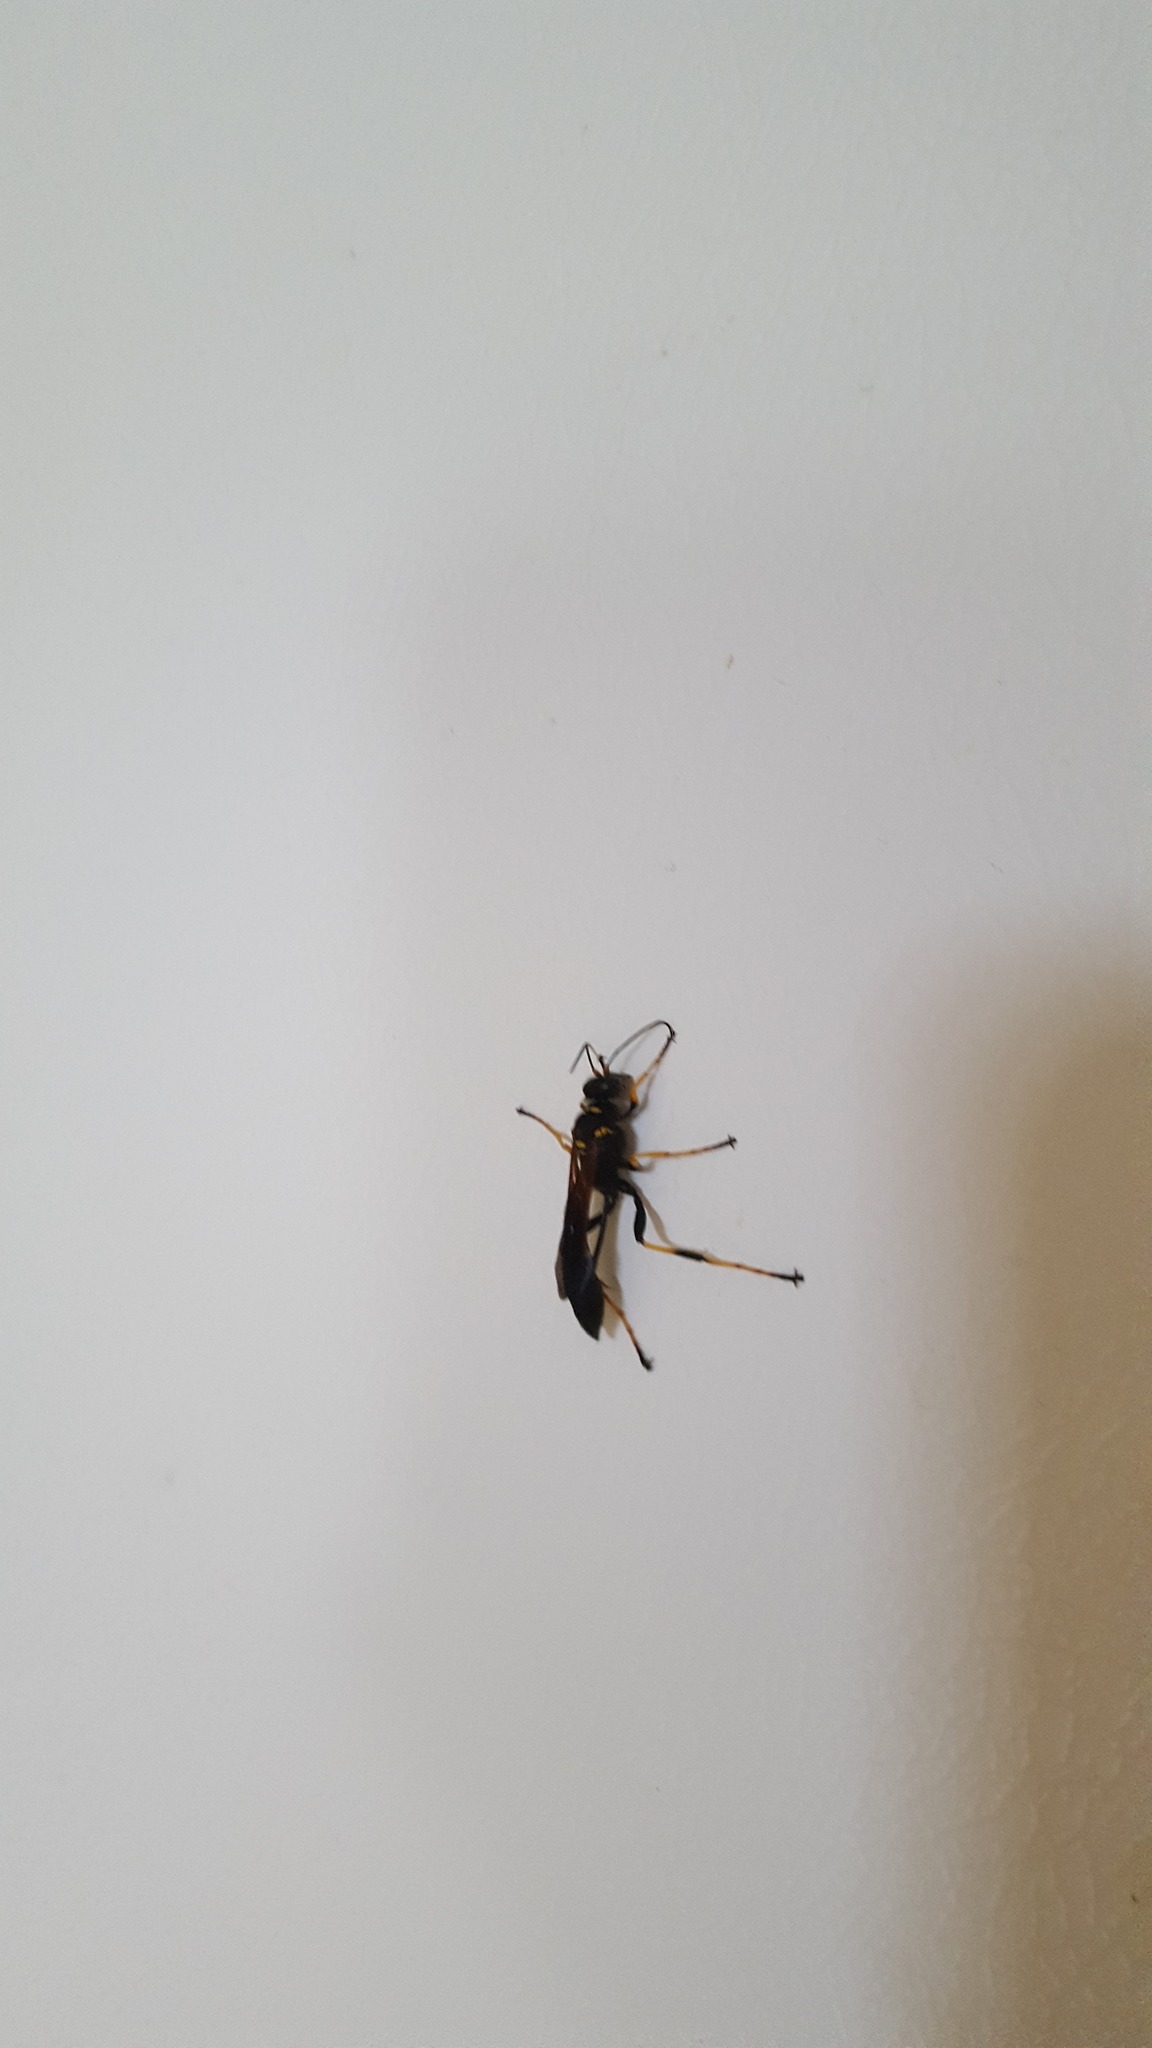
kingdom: Animalia
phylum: Arthropoda
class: Insecta
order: Hymenoptera
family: Sphecidae
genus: Sceliphron
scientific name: Sceliphron caementarium
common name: Mud dauber
